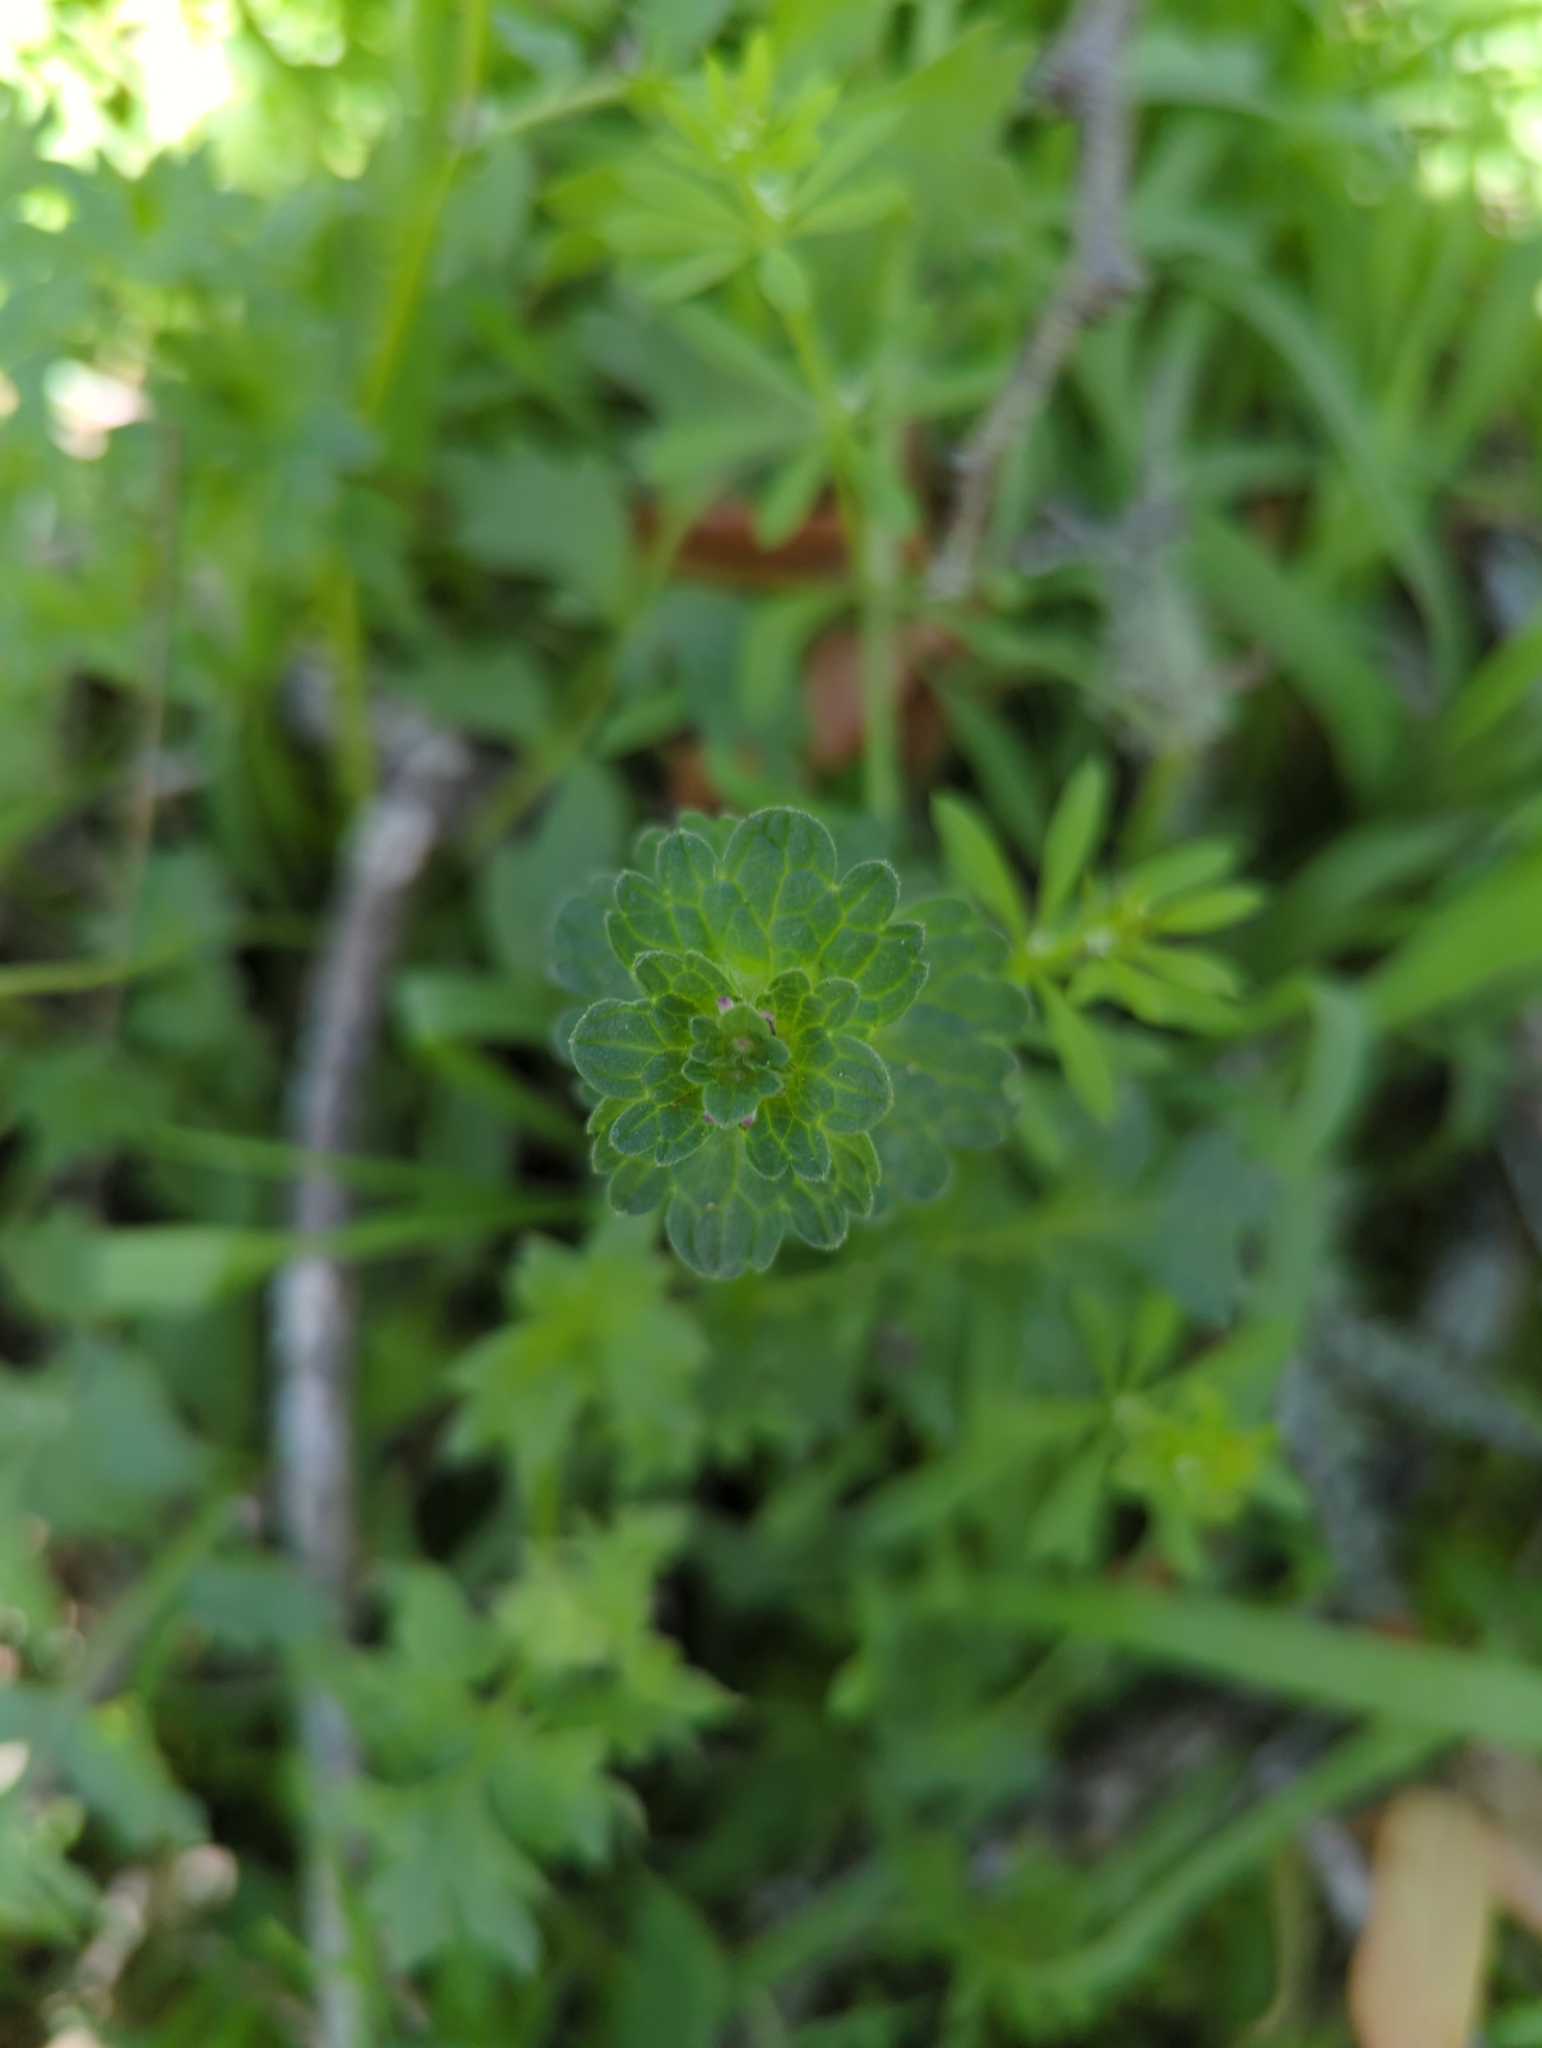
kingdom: Plantae
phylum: Tracheophyta
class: Magnoliopsida
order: Lamiales
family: Lamiaceae
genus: Lamium
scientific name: Lamium amplexicaule
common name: Henbit dead-nettle
